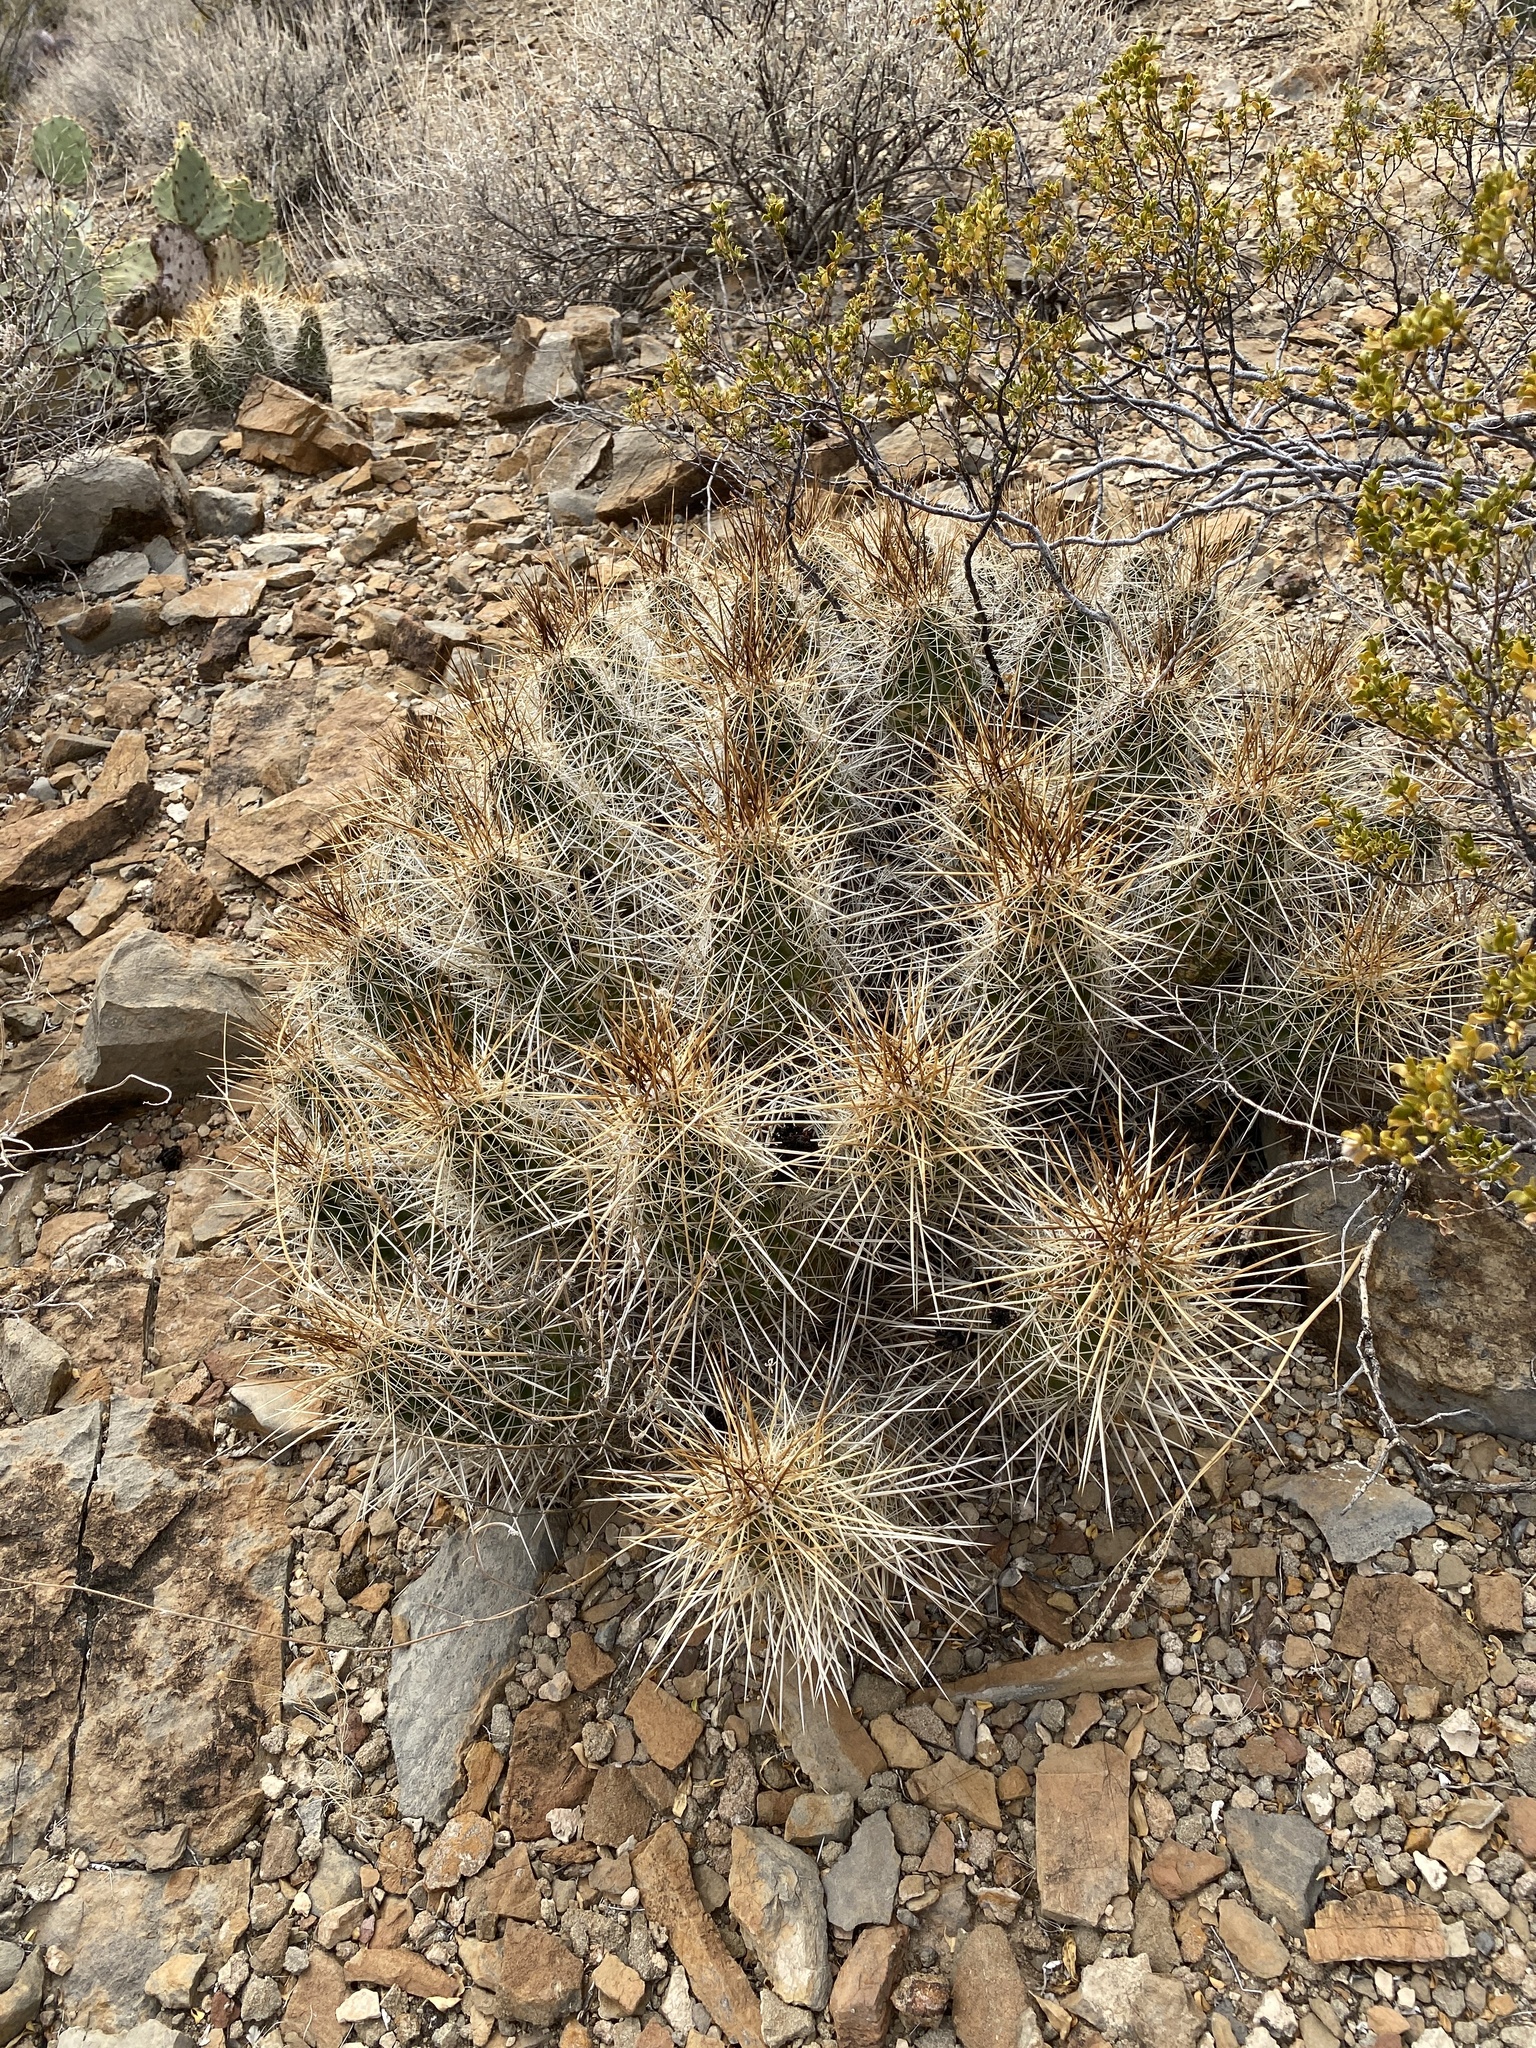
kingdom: Plantae
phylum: Tracheophyta
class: Magnoliopsida
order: Caryophyllales
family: Cactaceae
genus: Echinocereus
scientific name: Echinocereus stramineus
